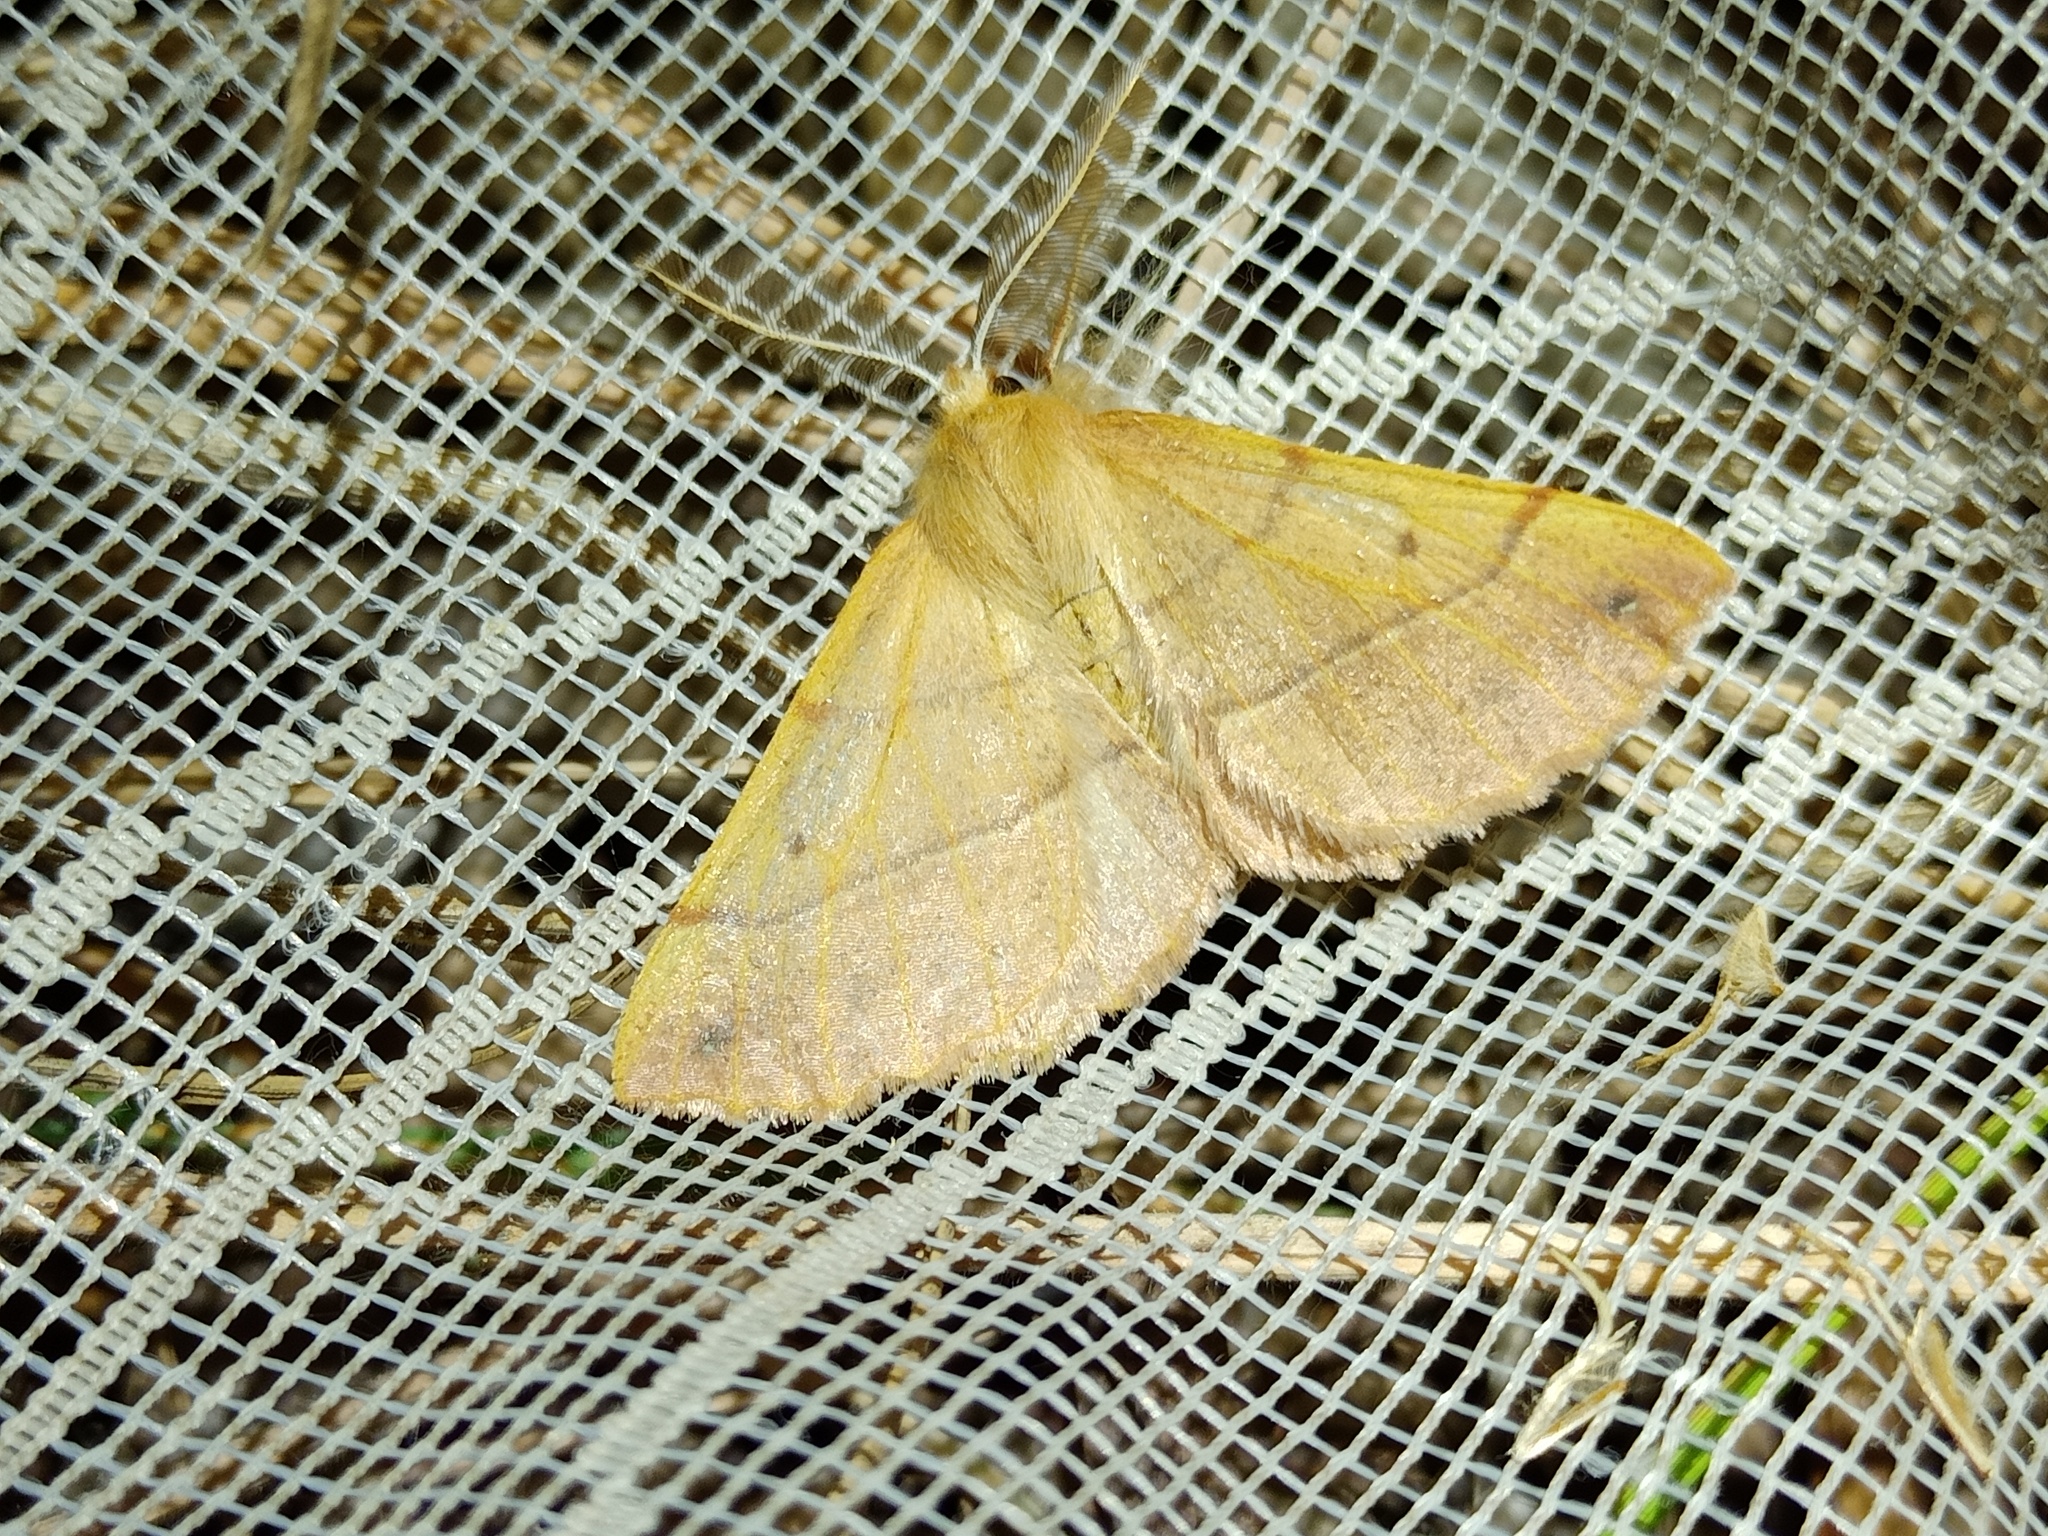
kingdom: Animalia
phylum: Arthropoda
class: Insecta
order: Lepidoptera
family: Geometridae
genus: Colotois
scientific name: Colotois pennaria
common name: Feathered thorn
